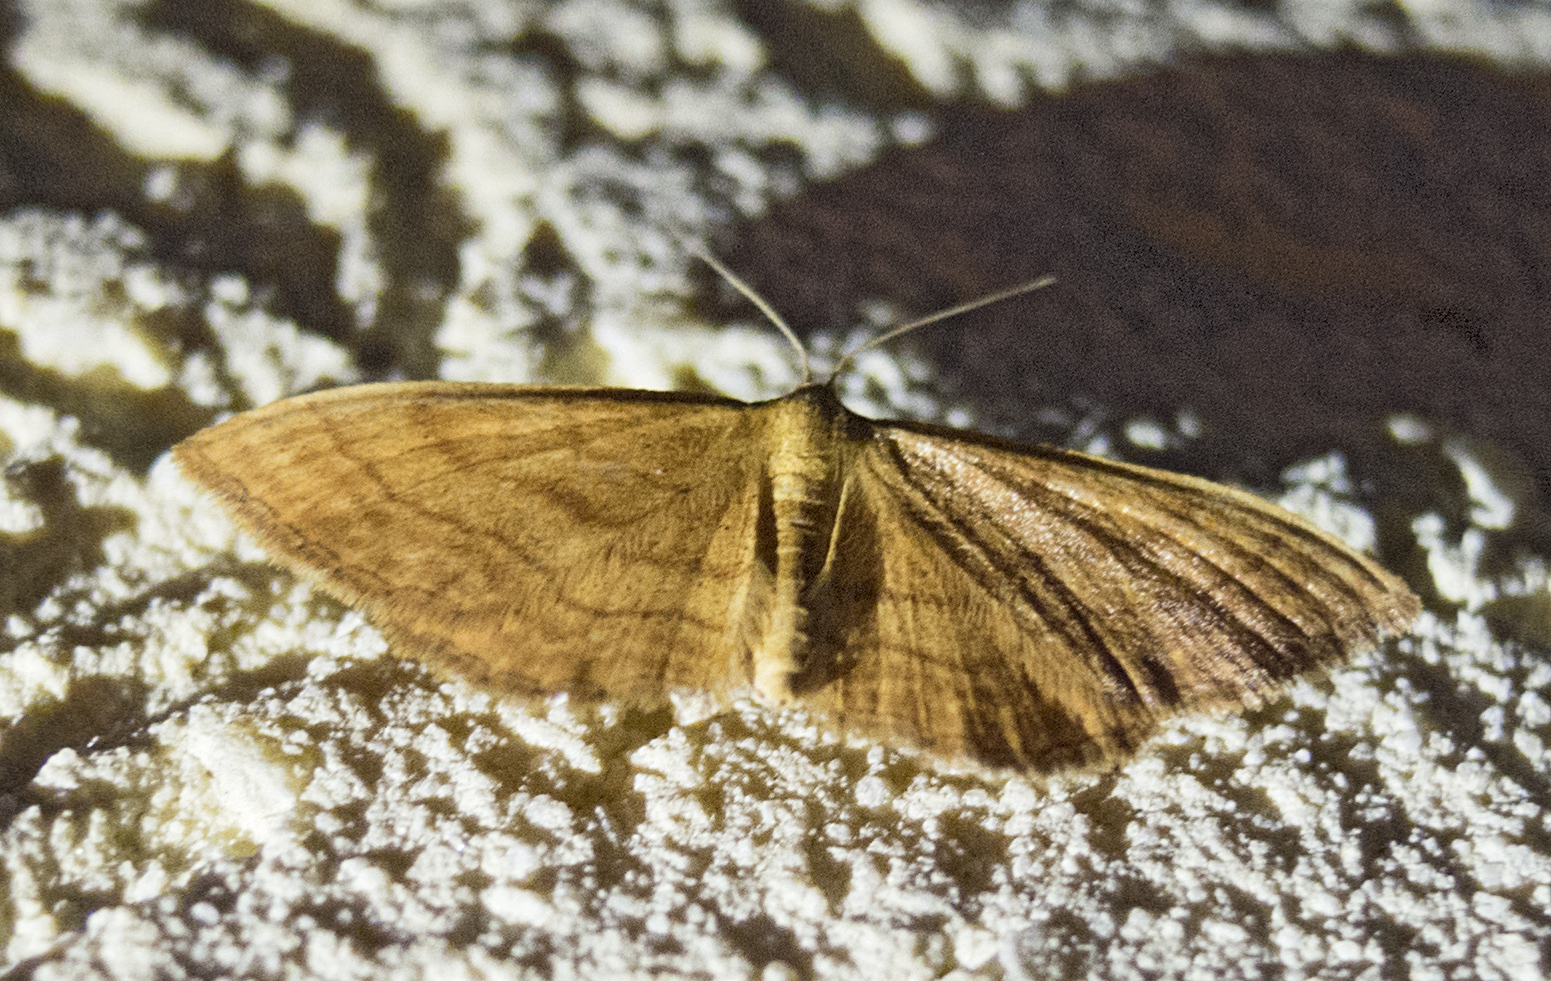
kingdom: Animalia
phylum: Arthropoda
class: Insecta
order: Lepidoptera
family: Geometridae
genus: Idaea
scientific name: Idaea ochrata
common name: Bright wave
